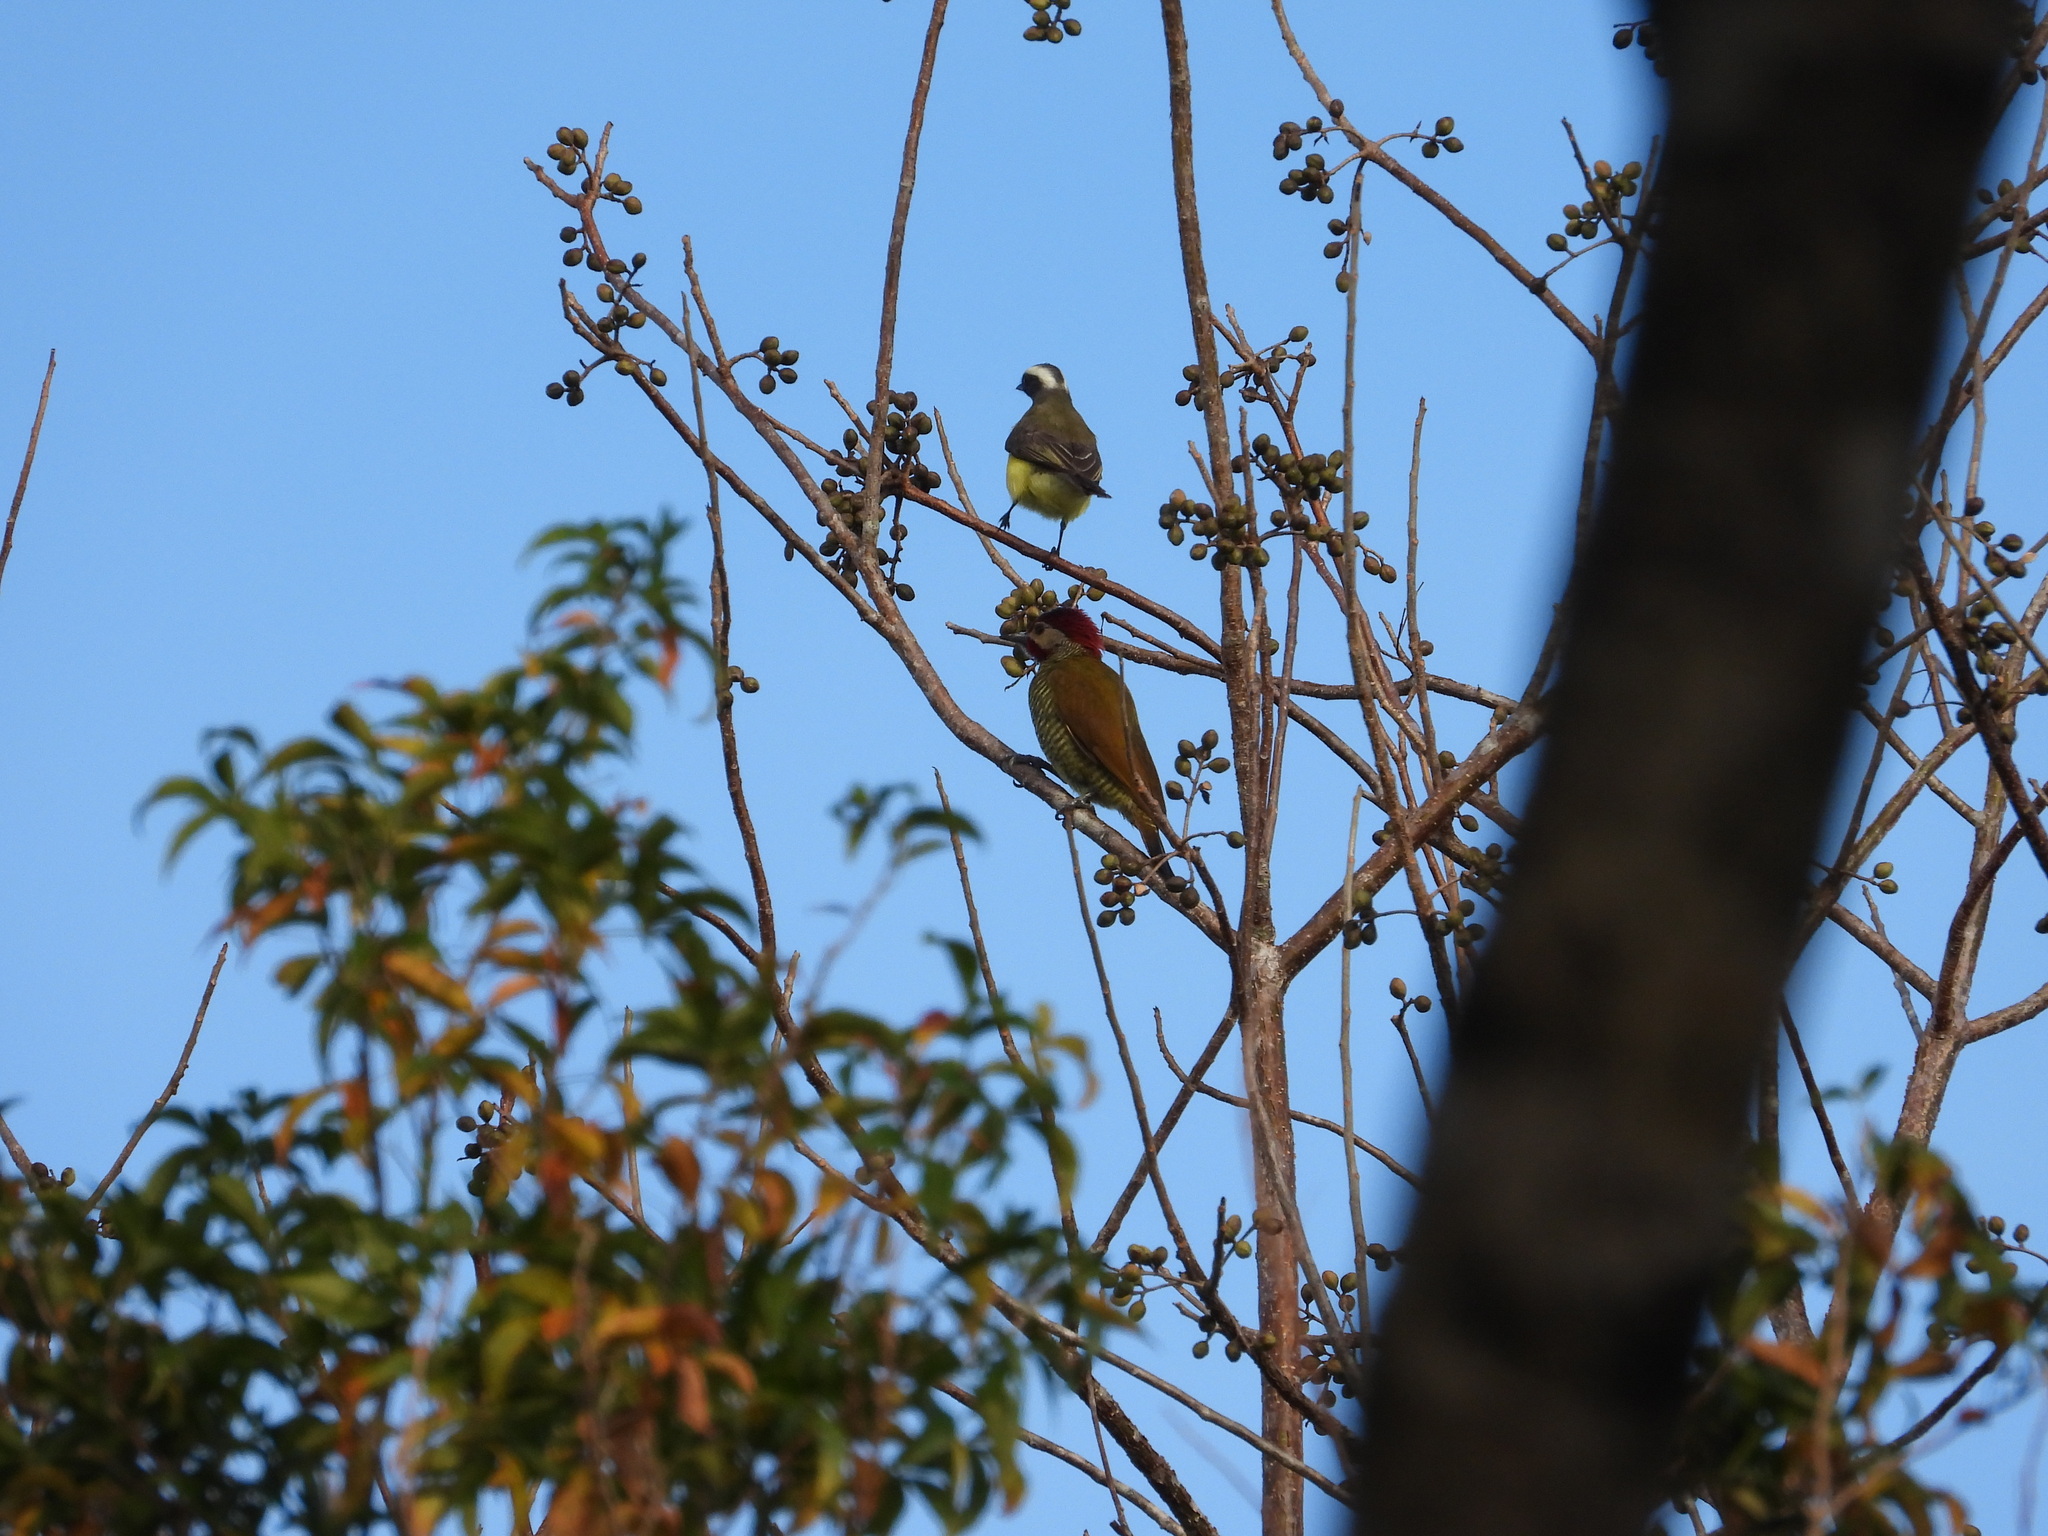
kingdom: Animalia
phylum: Chordata
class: Aves
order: Piciformes
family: Picidae
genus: Colaptes
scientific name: Colaptes rubiginosus
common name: Golden-olive woodpecker
